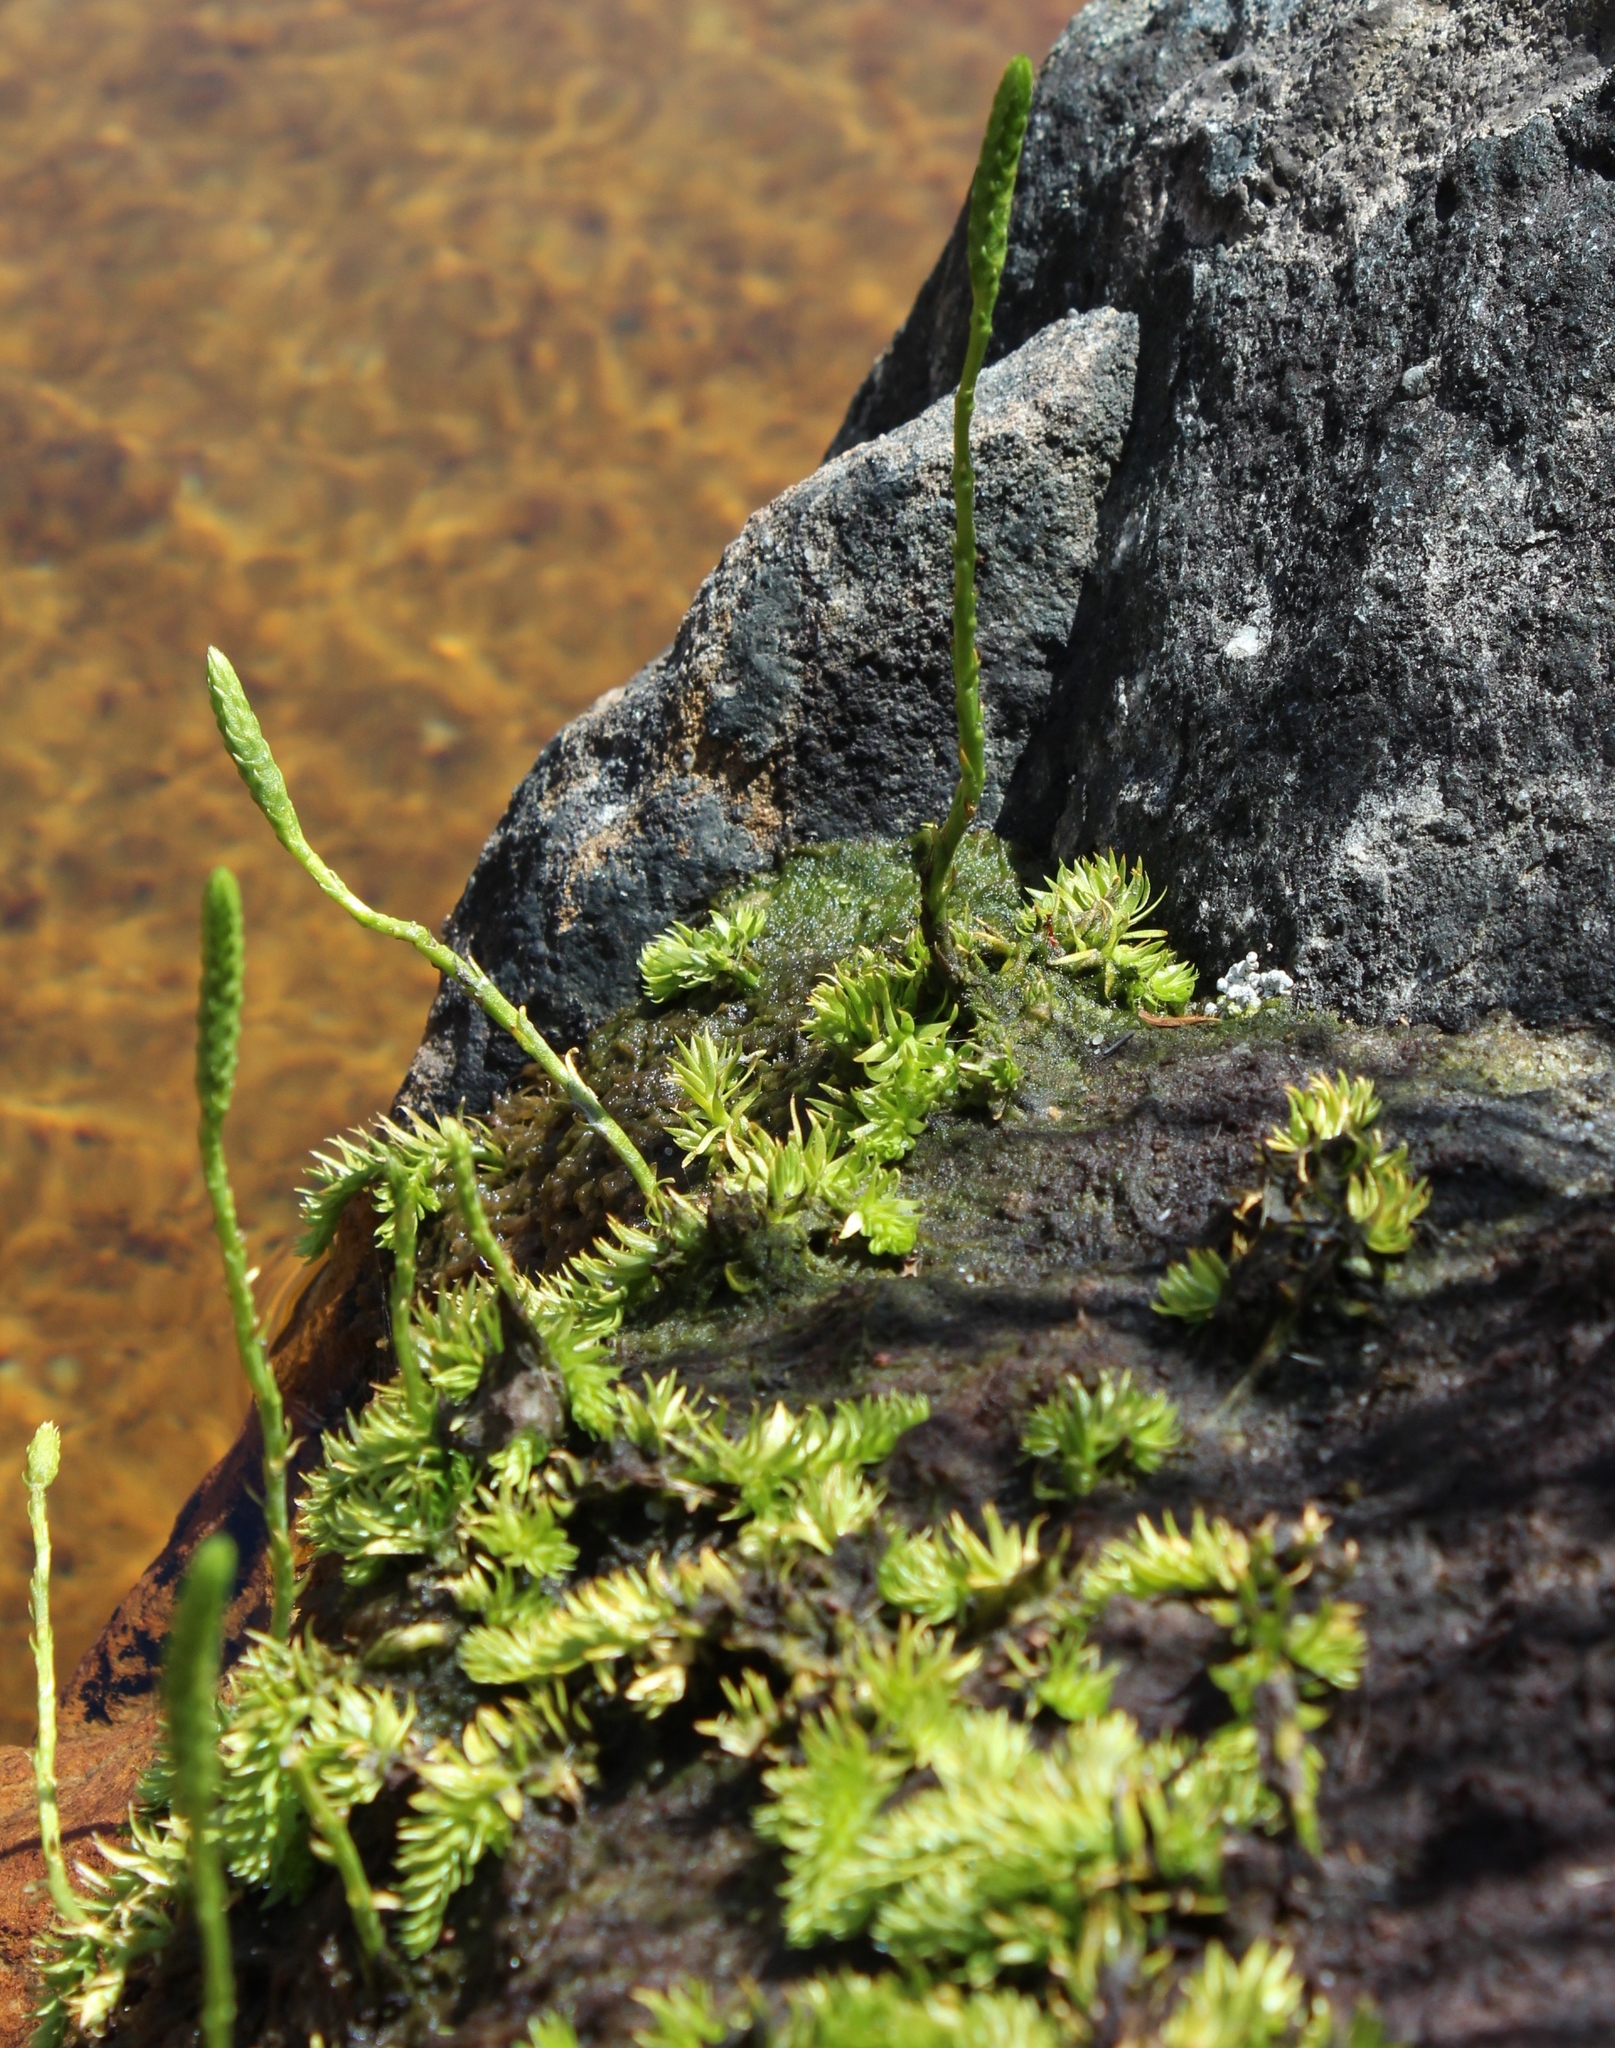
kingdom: Plantae
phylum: Tracheophyta
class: Lycopodiopsida
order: Lycopodiales
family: Lycopodiaceae
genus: Pseudolycopodiella
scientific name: Pseudolycopodiella caroliniana
